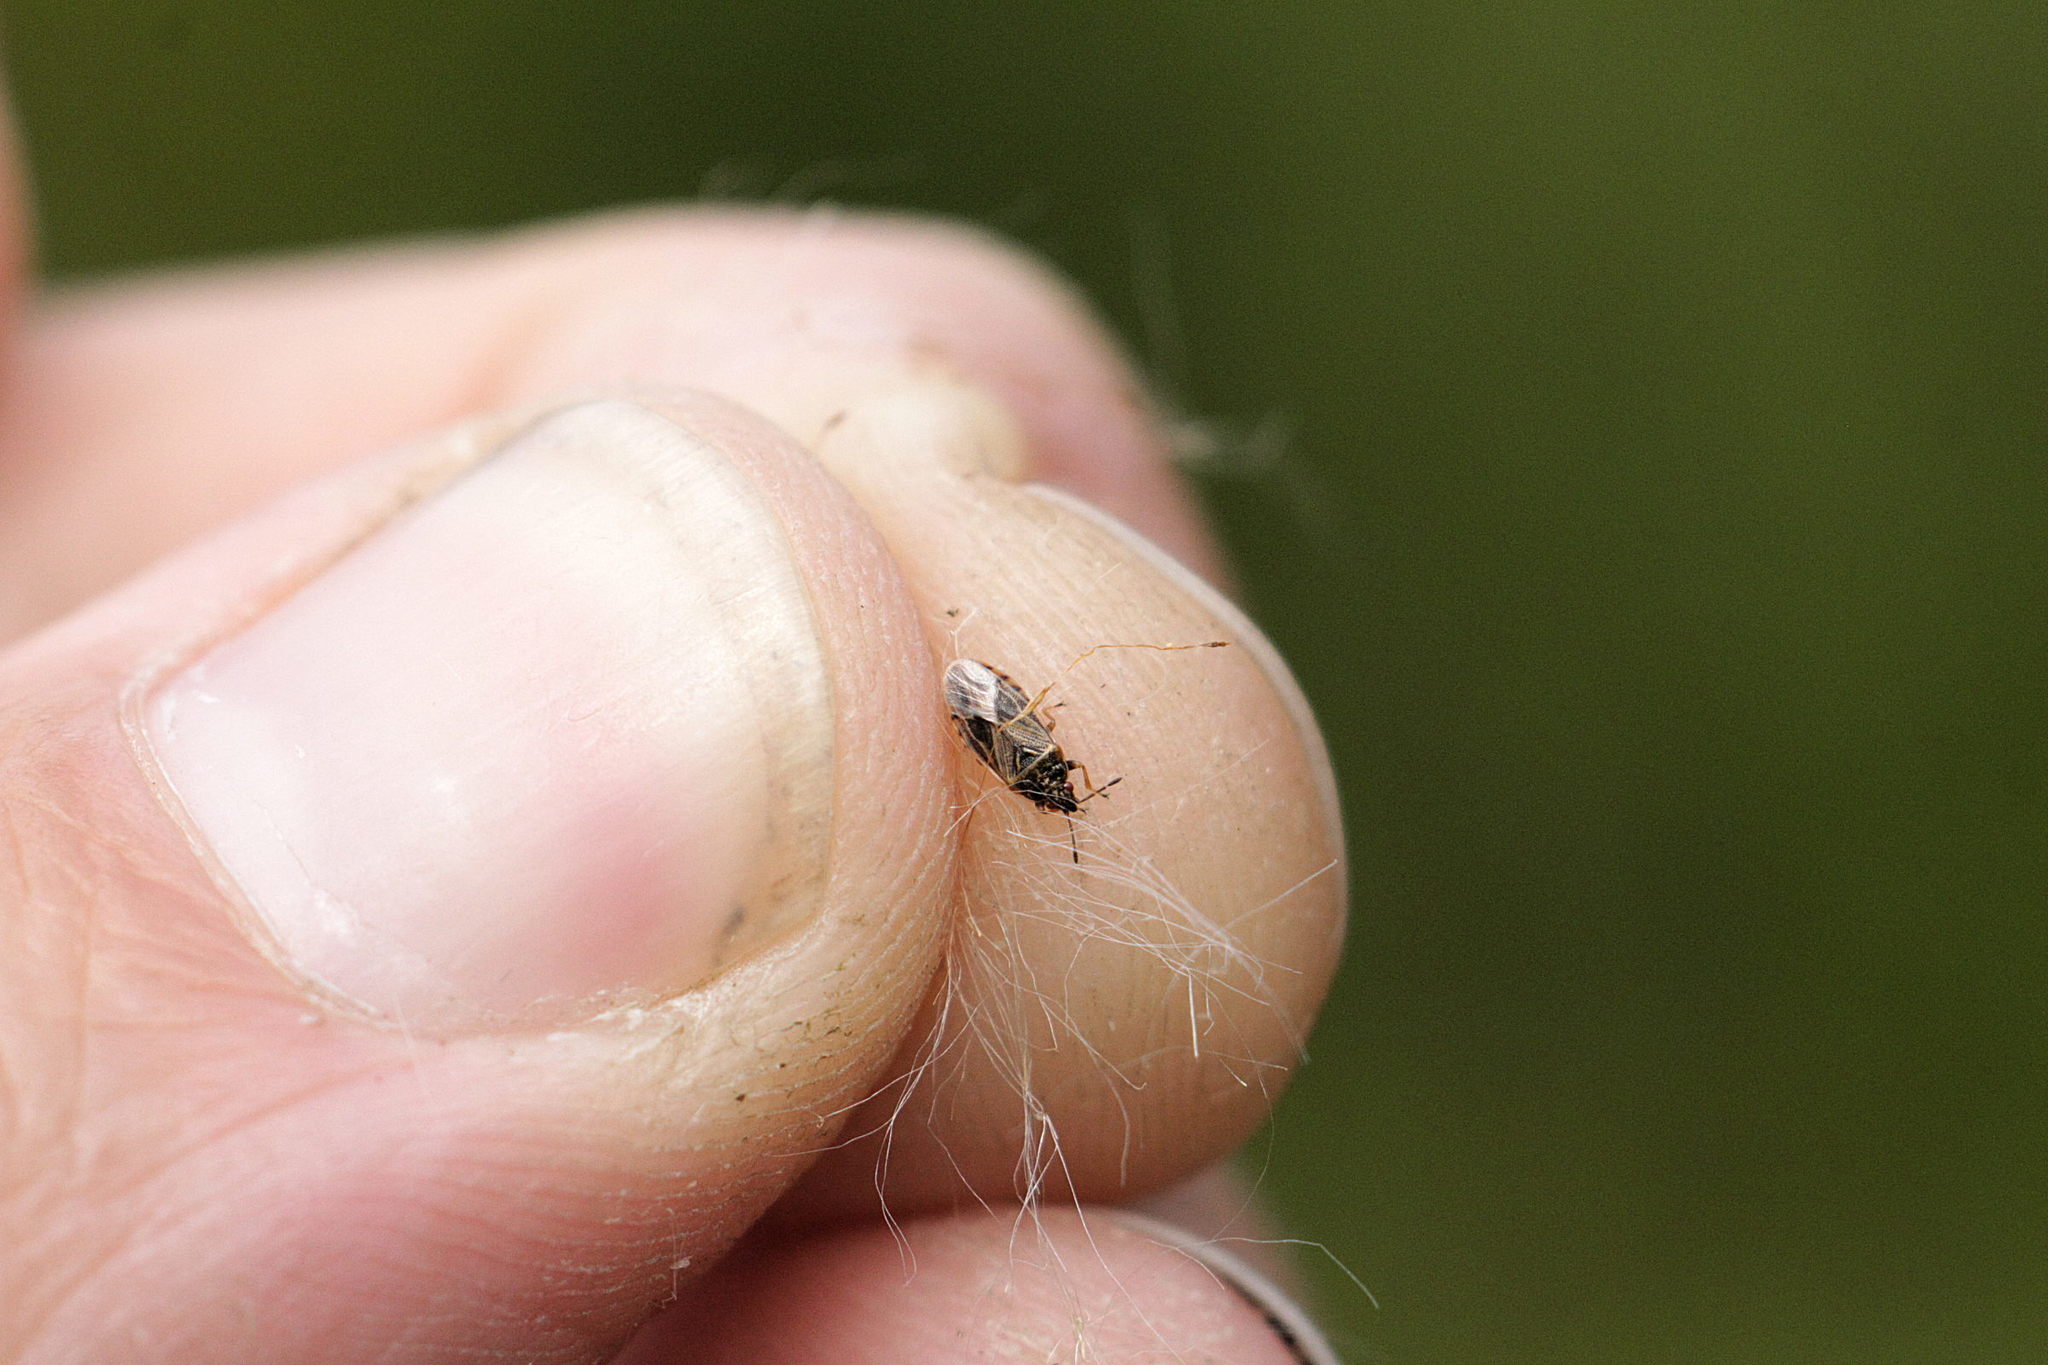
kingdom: Animalia
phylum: Arthropoda
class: Insecta
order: Hemiptera
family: Artheneidae
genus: Chilacis
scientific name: Chilacis typhae
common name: Cattail bug
